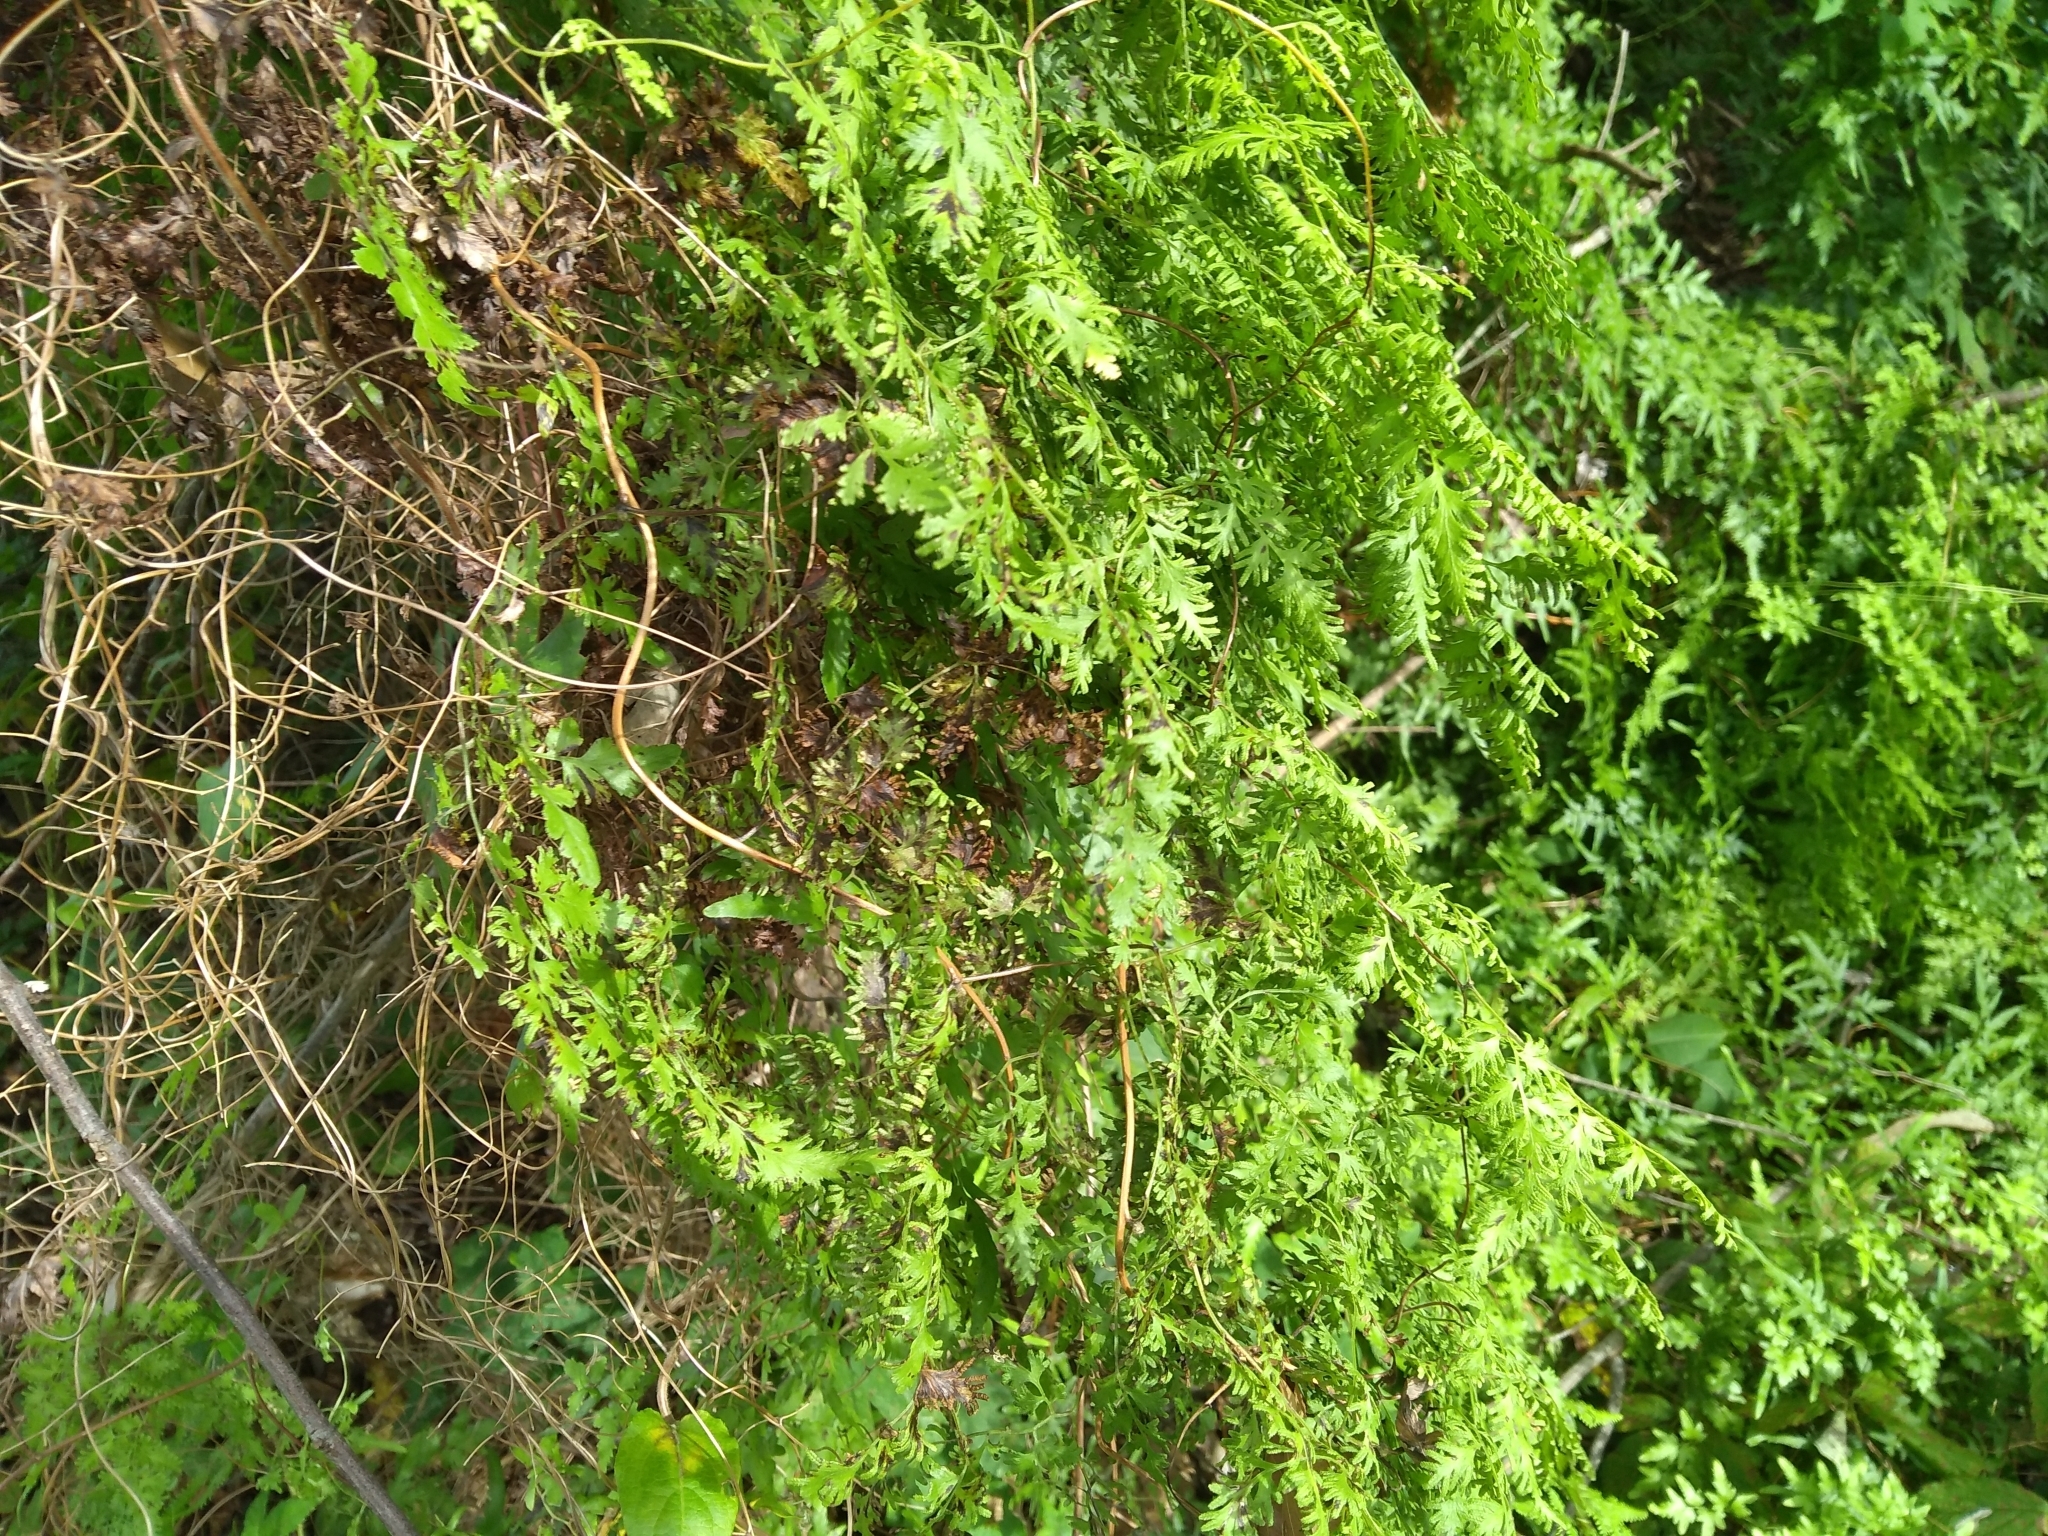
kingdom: Plantae
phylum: Tracheophyta
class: Polypodiopsida
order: Schizaeales
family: Lygodiaceae
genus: Lygodium
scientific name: Lygodium japonicum
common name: Japanese climbing fern
